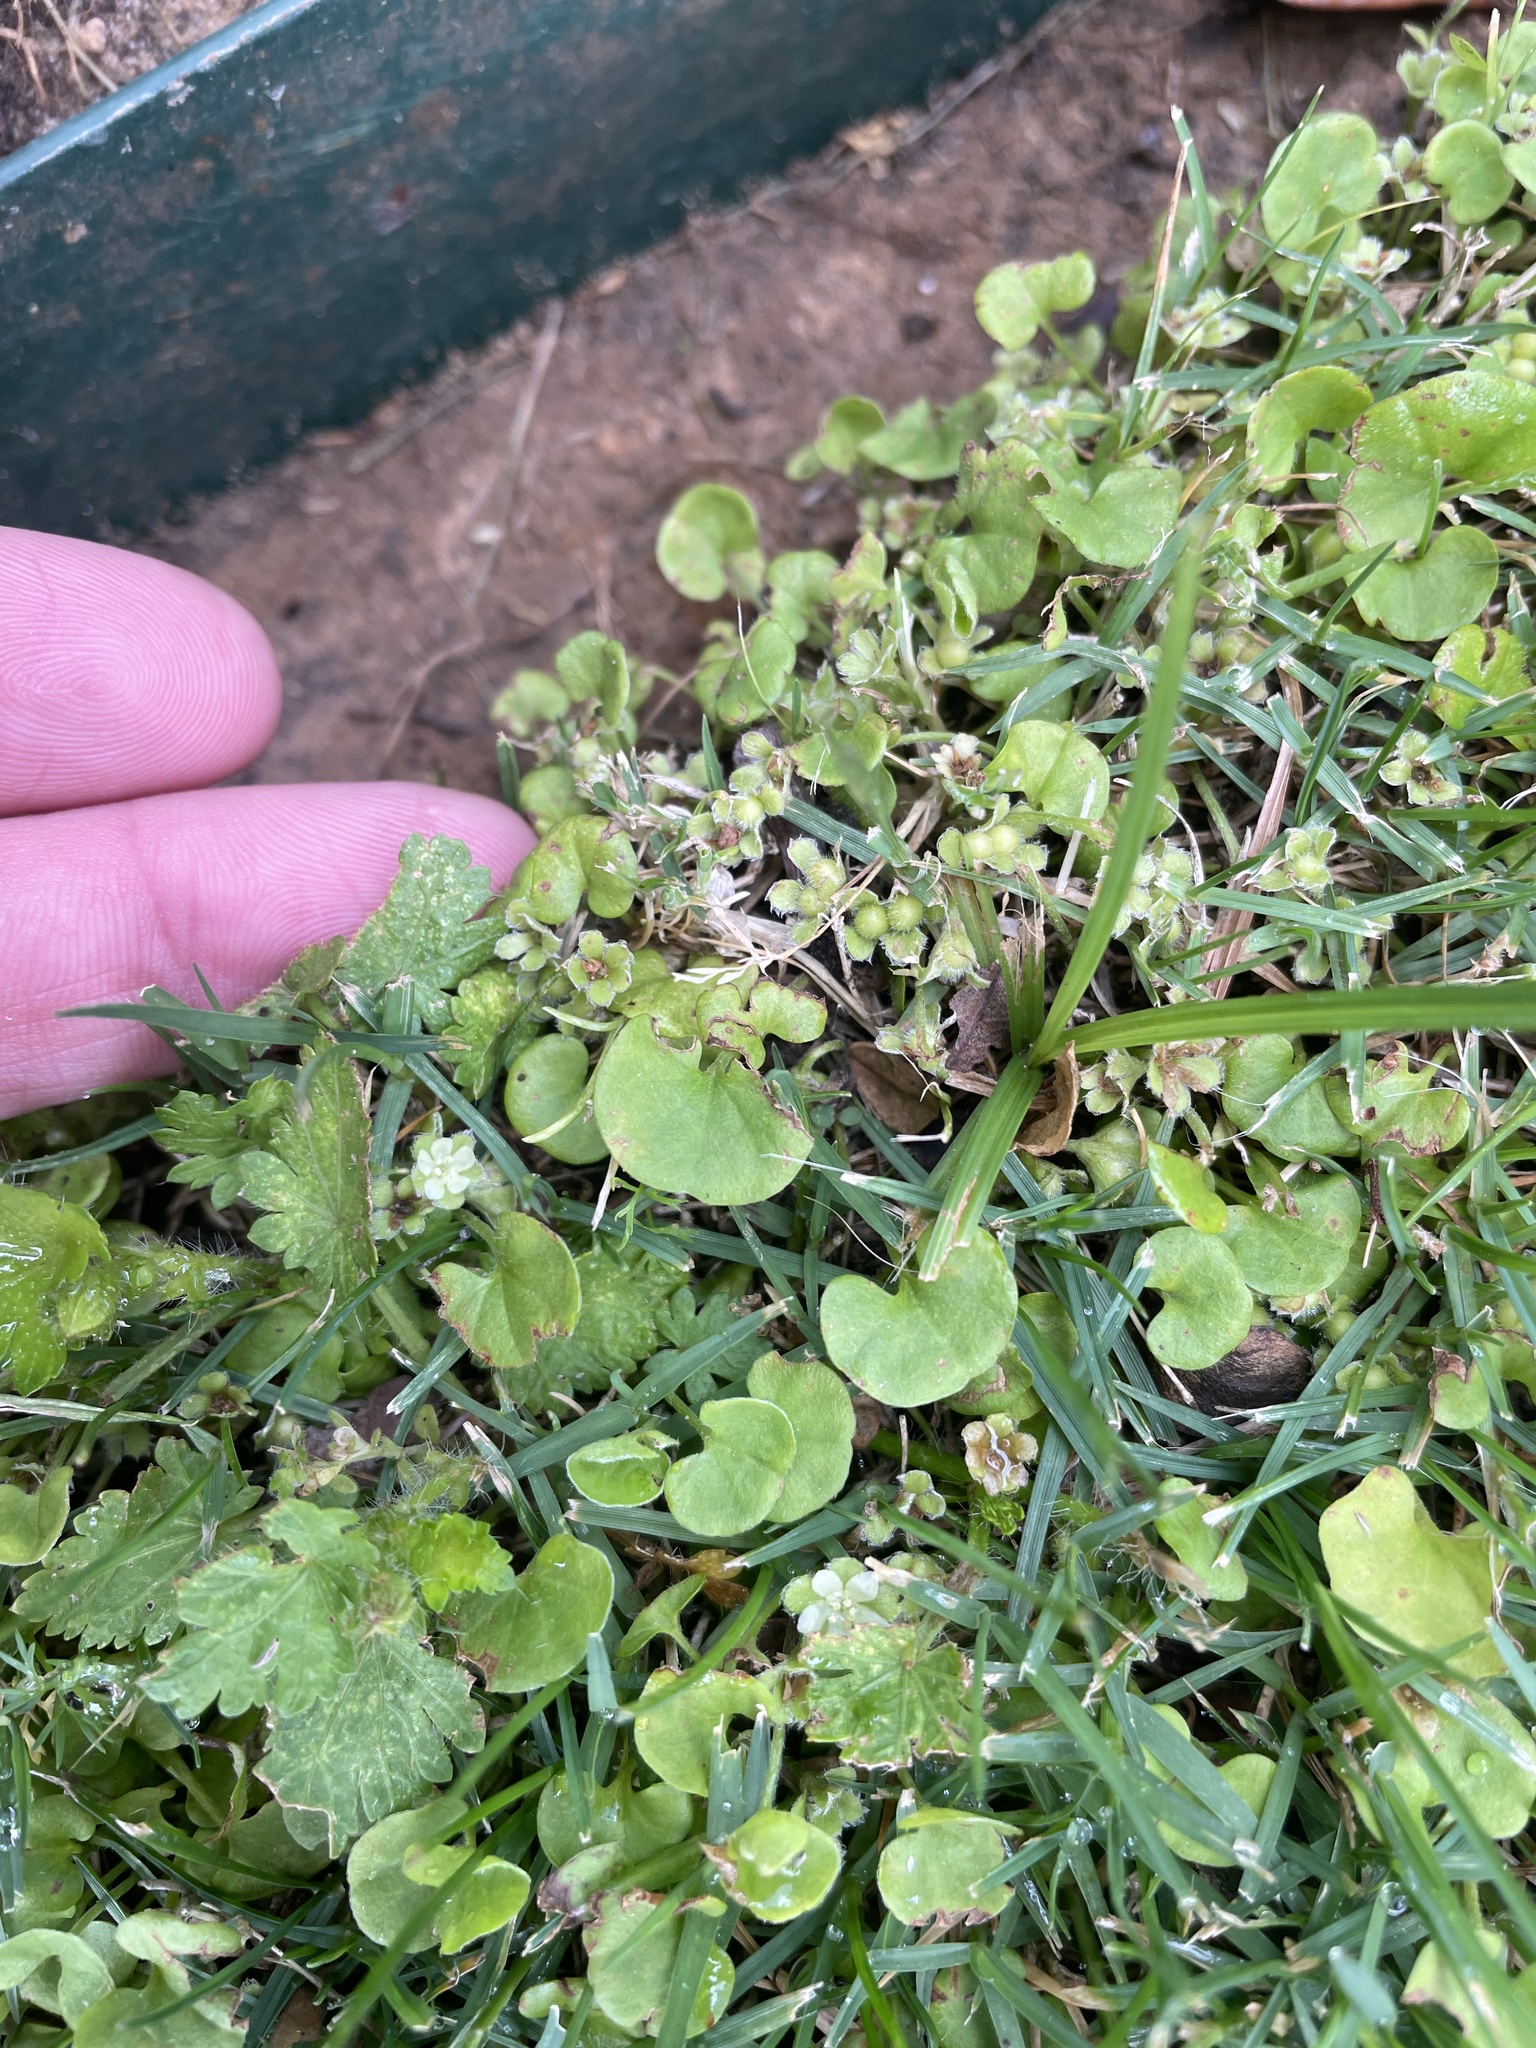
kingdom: Plantae
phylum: Tracheophyta
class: Magnoliopsida
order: Solanales
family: Convolvulaceae
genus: Dichondra
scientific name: Dichondra carolinensis
